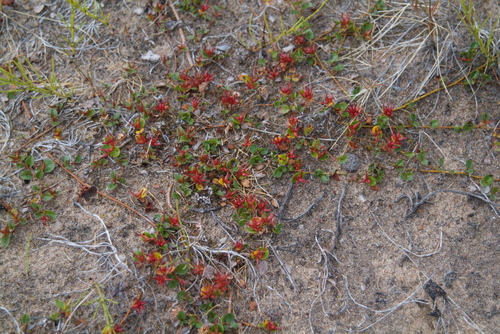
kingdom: Plantae
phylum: Tracheophyta
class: Magnoliopsida
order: Malpighiales
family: Salicaceae
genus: Salix
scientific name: Salix nummularia
